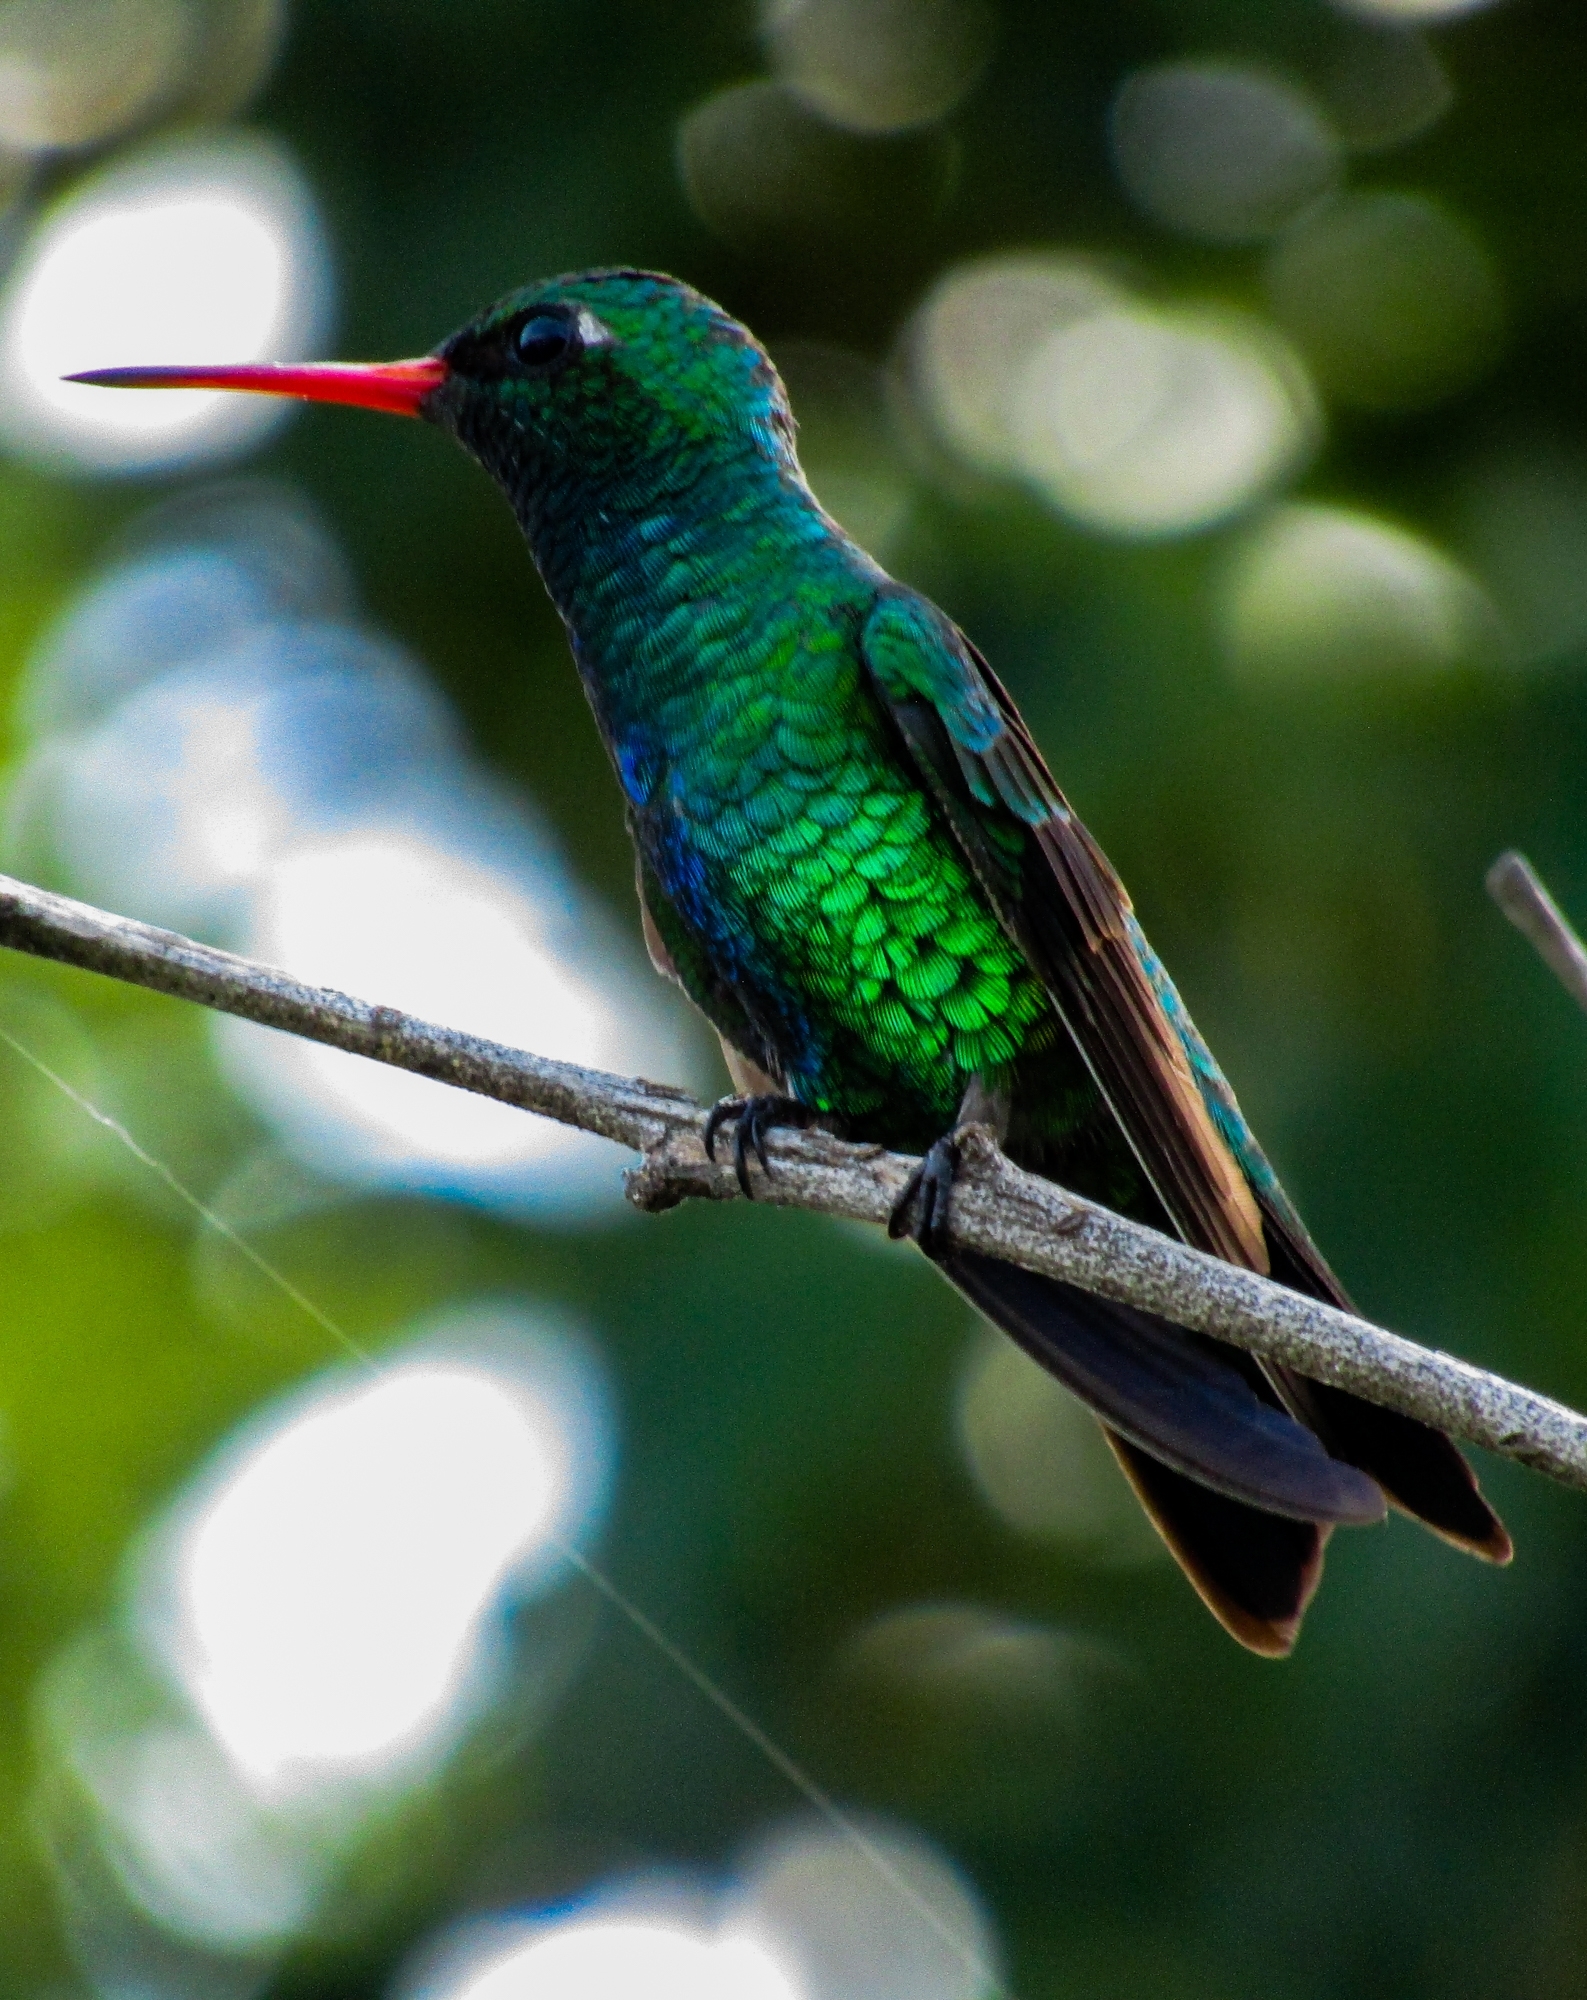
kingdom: Animalia
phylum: Chordata
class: Aves
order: Apodiformes
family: Trochilidae
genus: Chlorostilbon
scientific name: Chlorostilbon lucidus
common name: Glittering-bellied emerald
